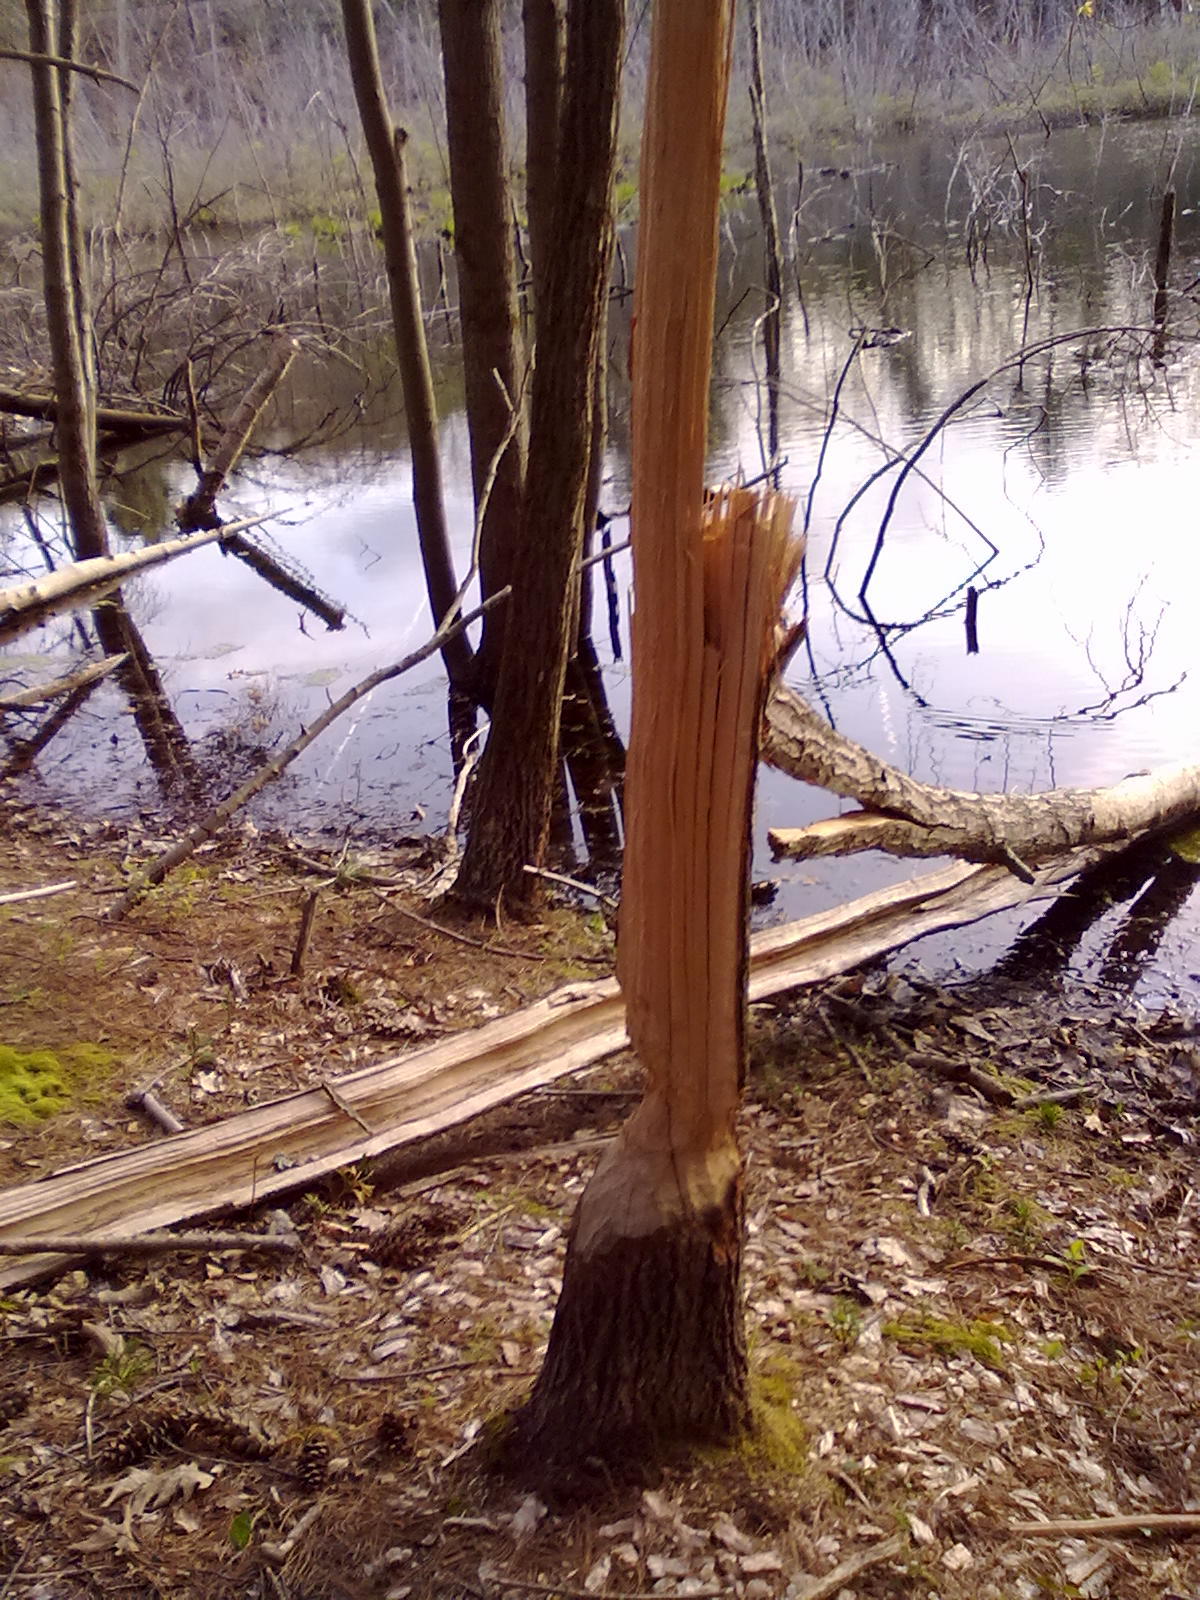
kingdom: Animalia
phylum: Chordata
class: Mammalia
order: Rodentia
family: Castoridae
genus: Castor
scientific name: Castor canadensis
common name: American beaver
